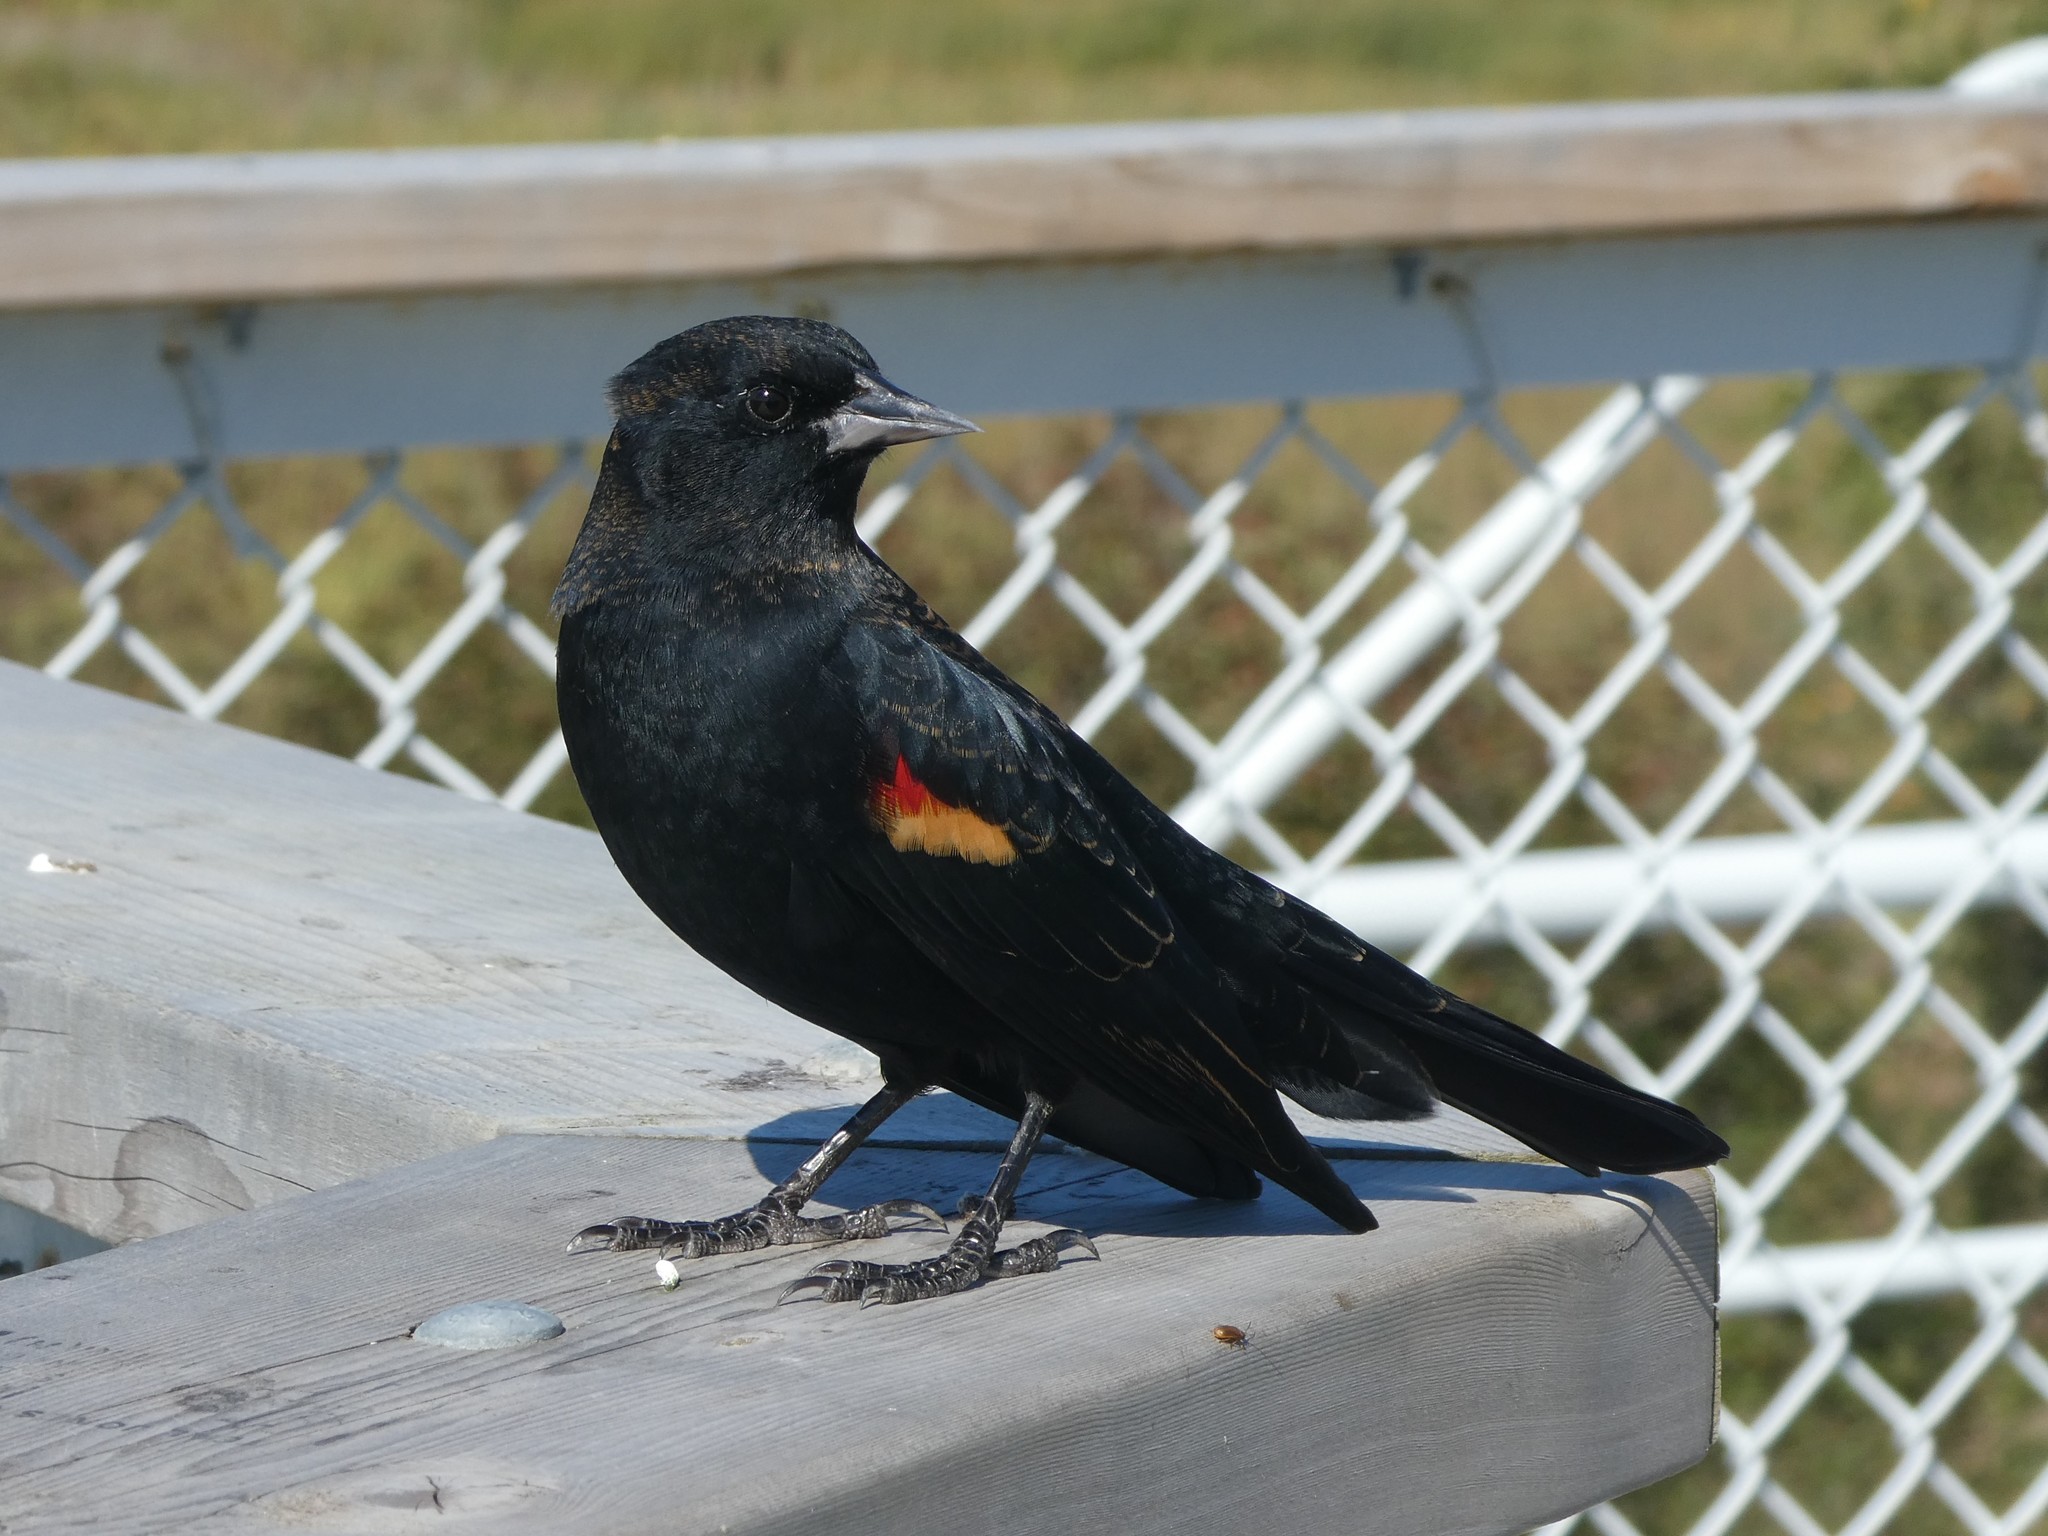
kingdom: Animalia
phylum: Chordata
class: Aves
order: Passeriformes
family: Icteridae
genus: Agelaius
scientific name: Agelaius phoeniceus
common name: Red-winged blackbird
